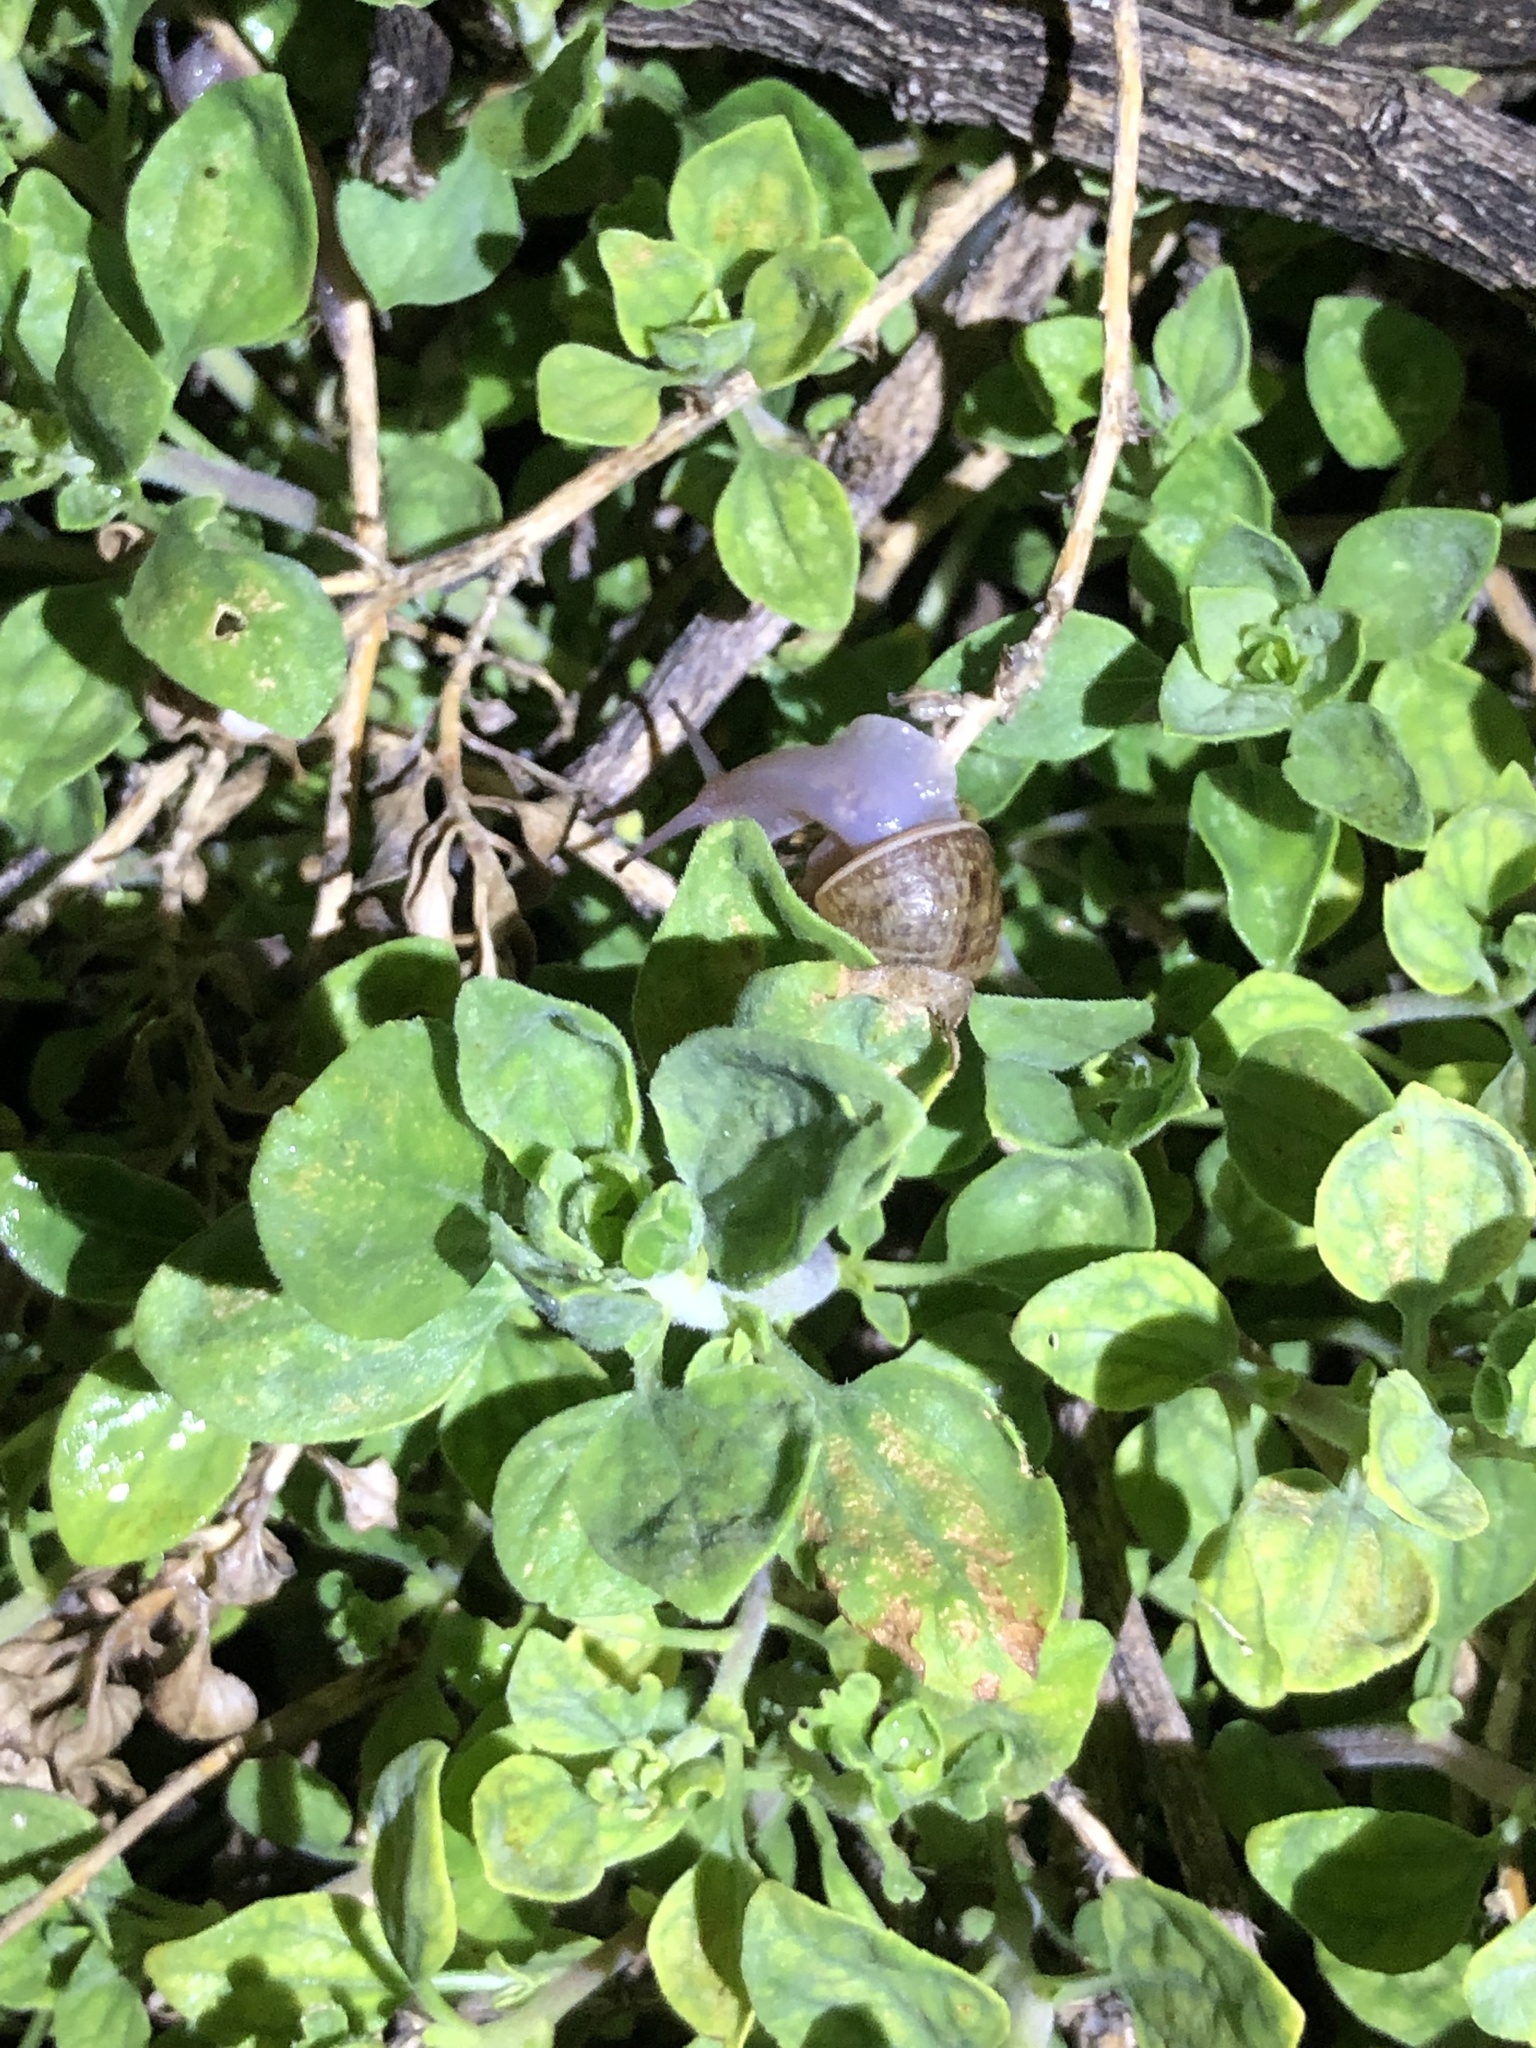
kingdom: Animalia
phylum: Mollusca
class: Gastropoda
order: Stylommatophora
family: Helicidae
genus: Cornu
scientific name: Cornu aspersum
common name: Brown garden snail
